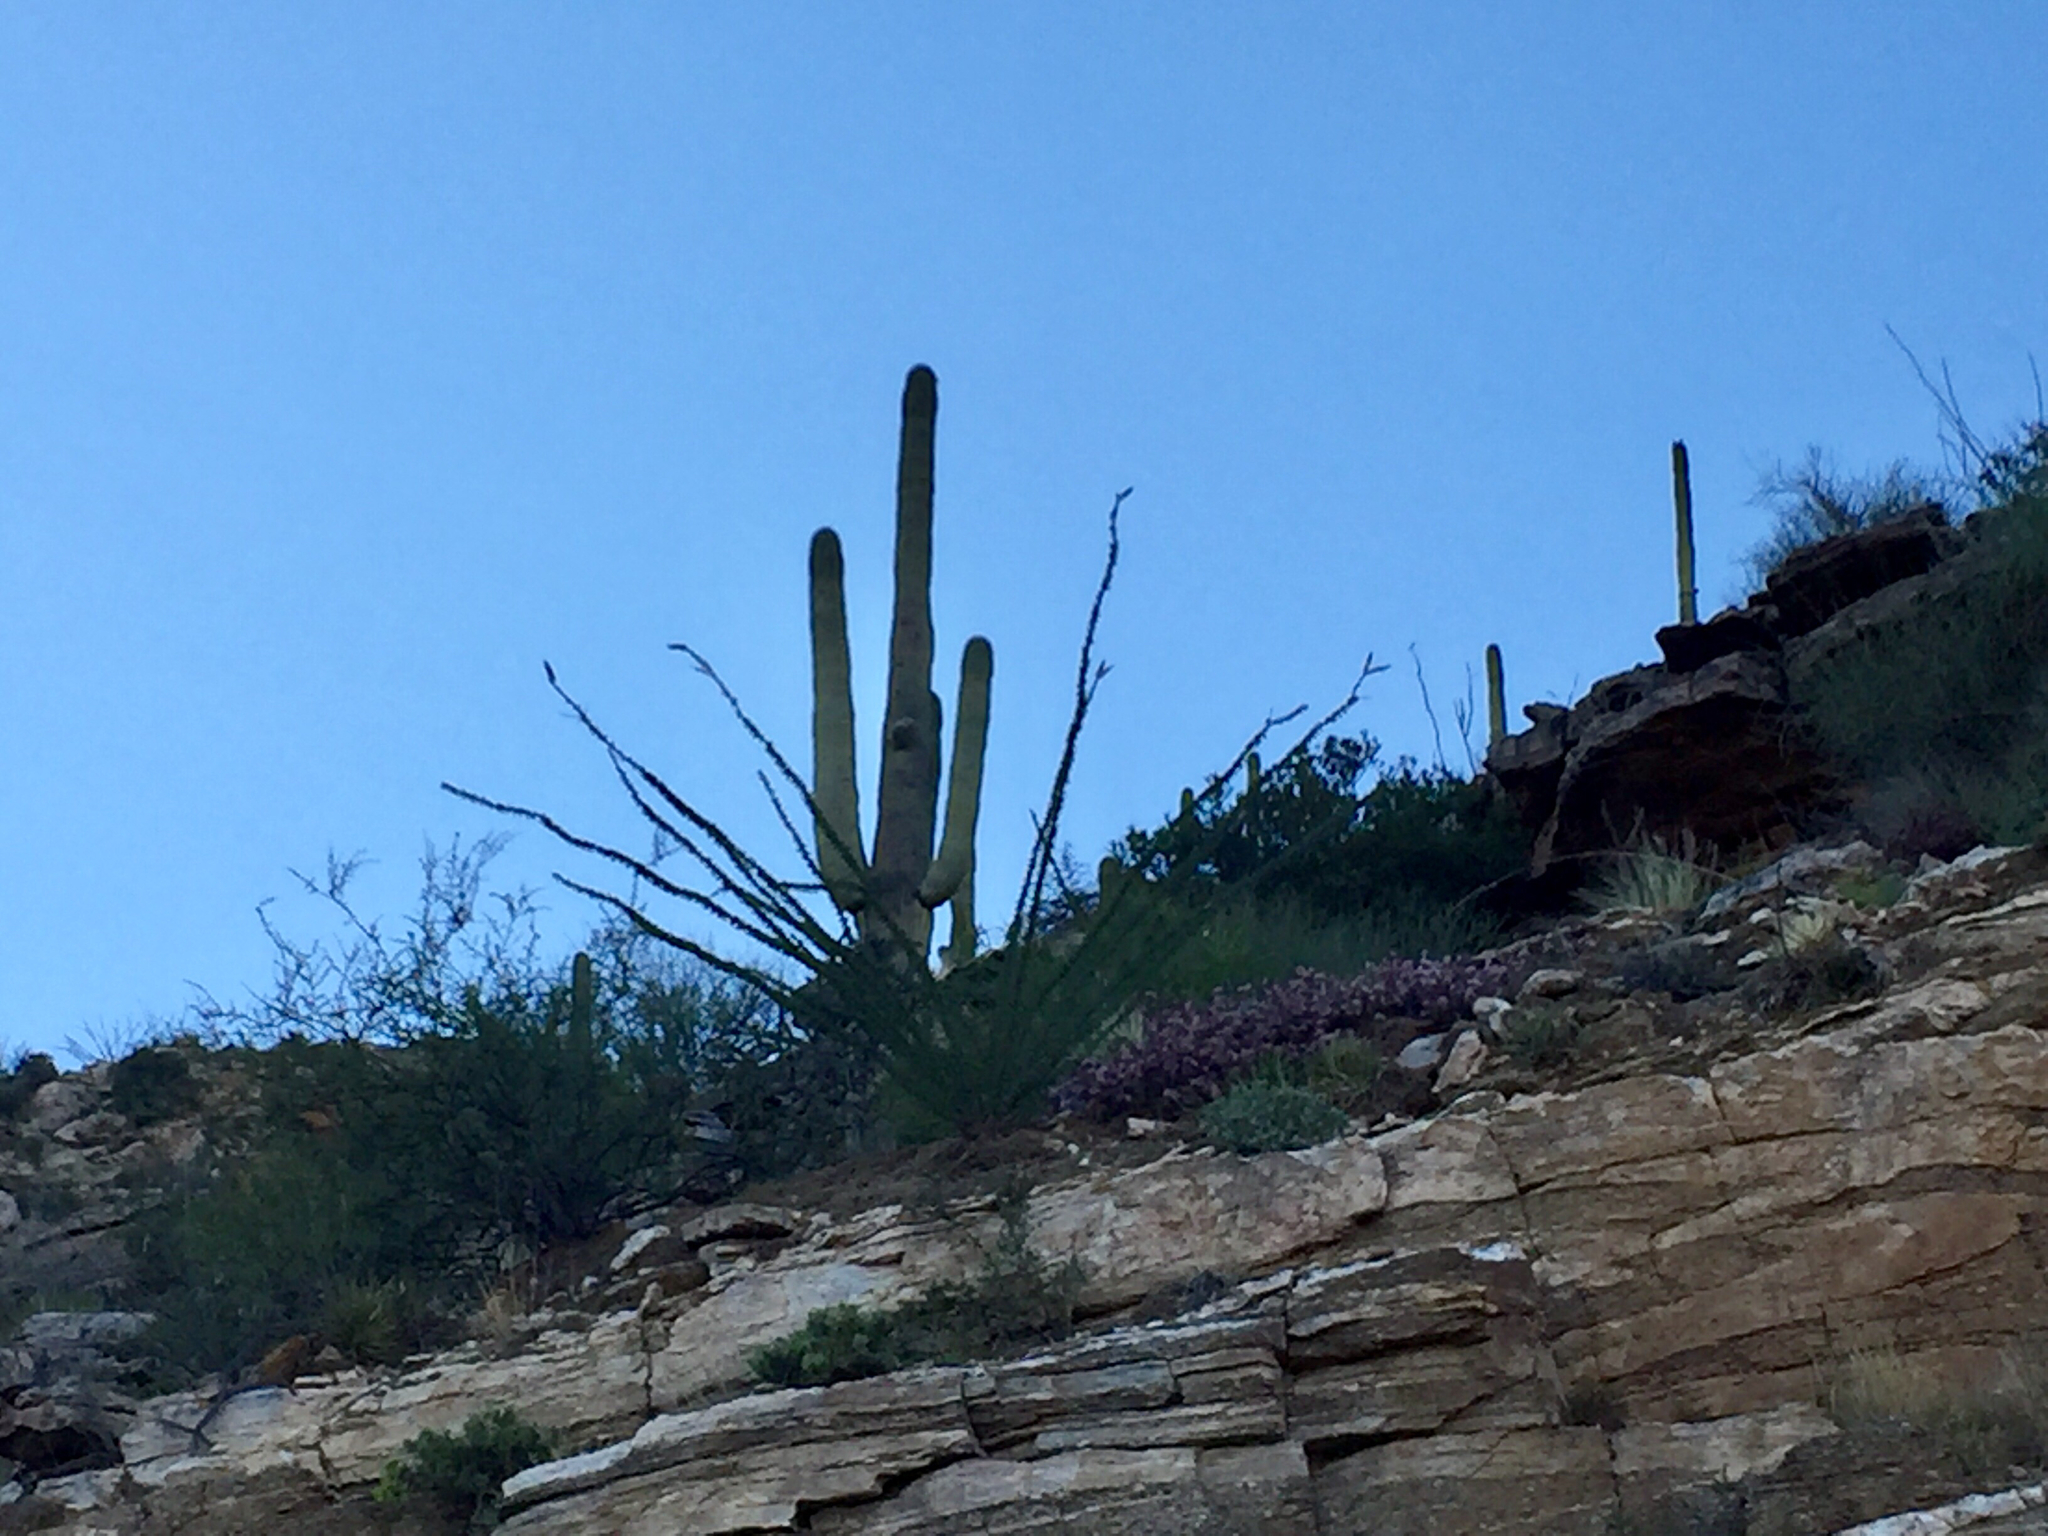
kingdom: Plantae
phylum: Tracheophyta
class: Magnoliopsida
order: Caryophyllales
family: Cactaceae
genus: Carnegiea
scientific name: Carnegiea gigantea
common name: Saguaro
